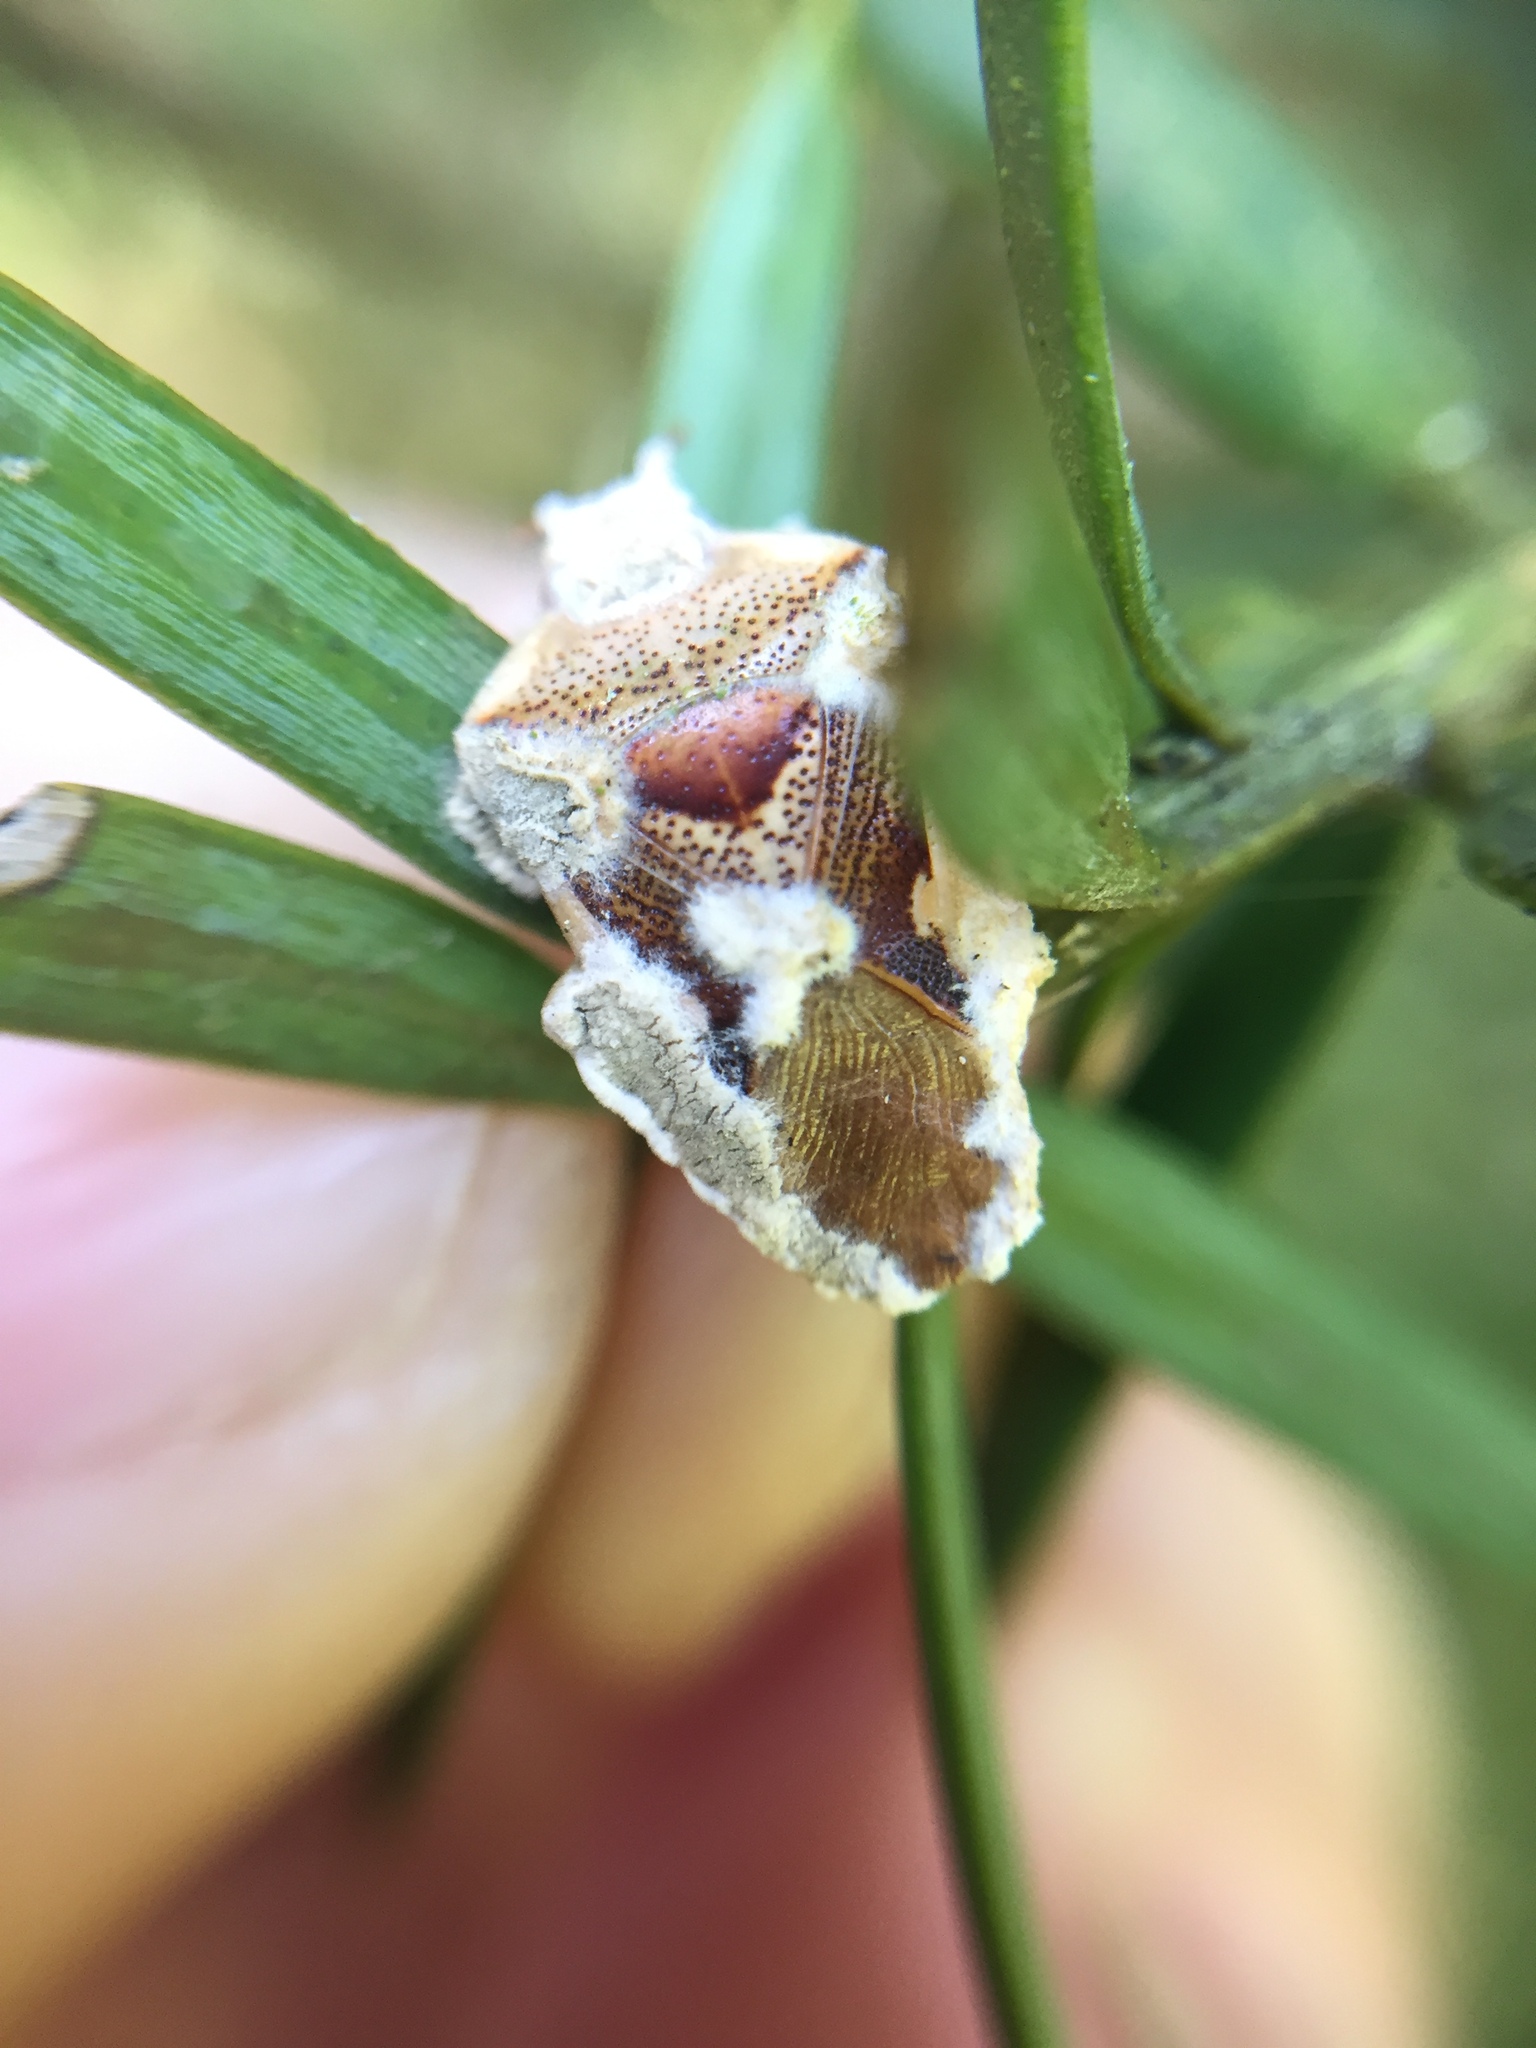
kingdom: Animalia
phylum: Arthropoda
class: Insecta
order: Hemiptera
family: Acanthosomatidae
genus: Oncacontias
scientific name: Oncacontias vittatus
